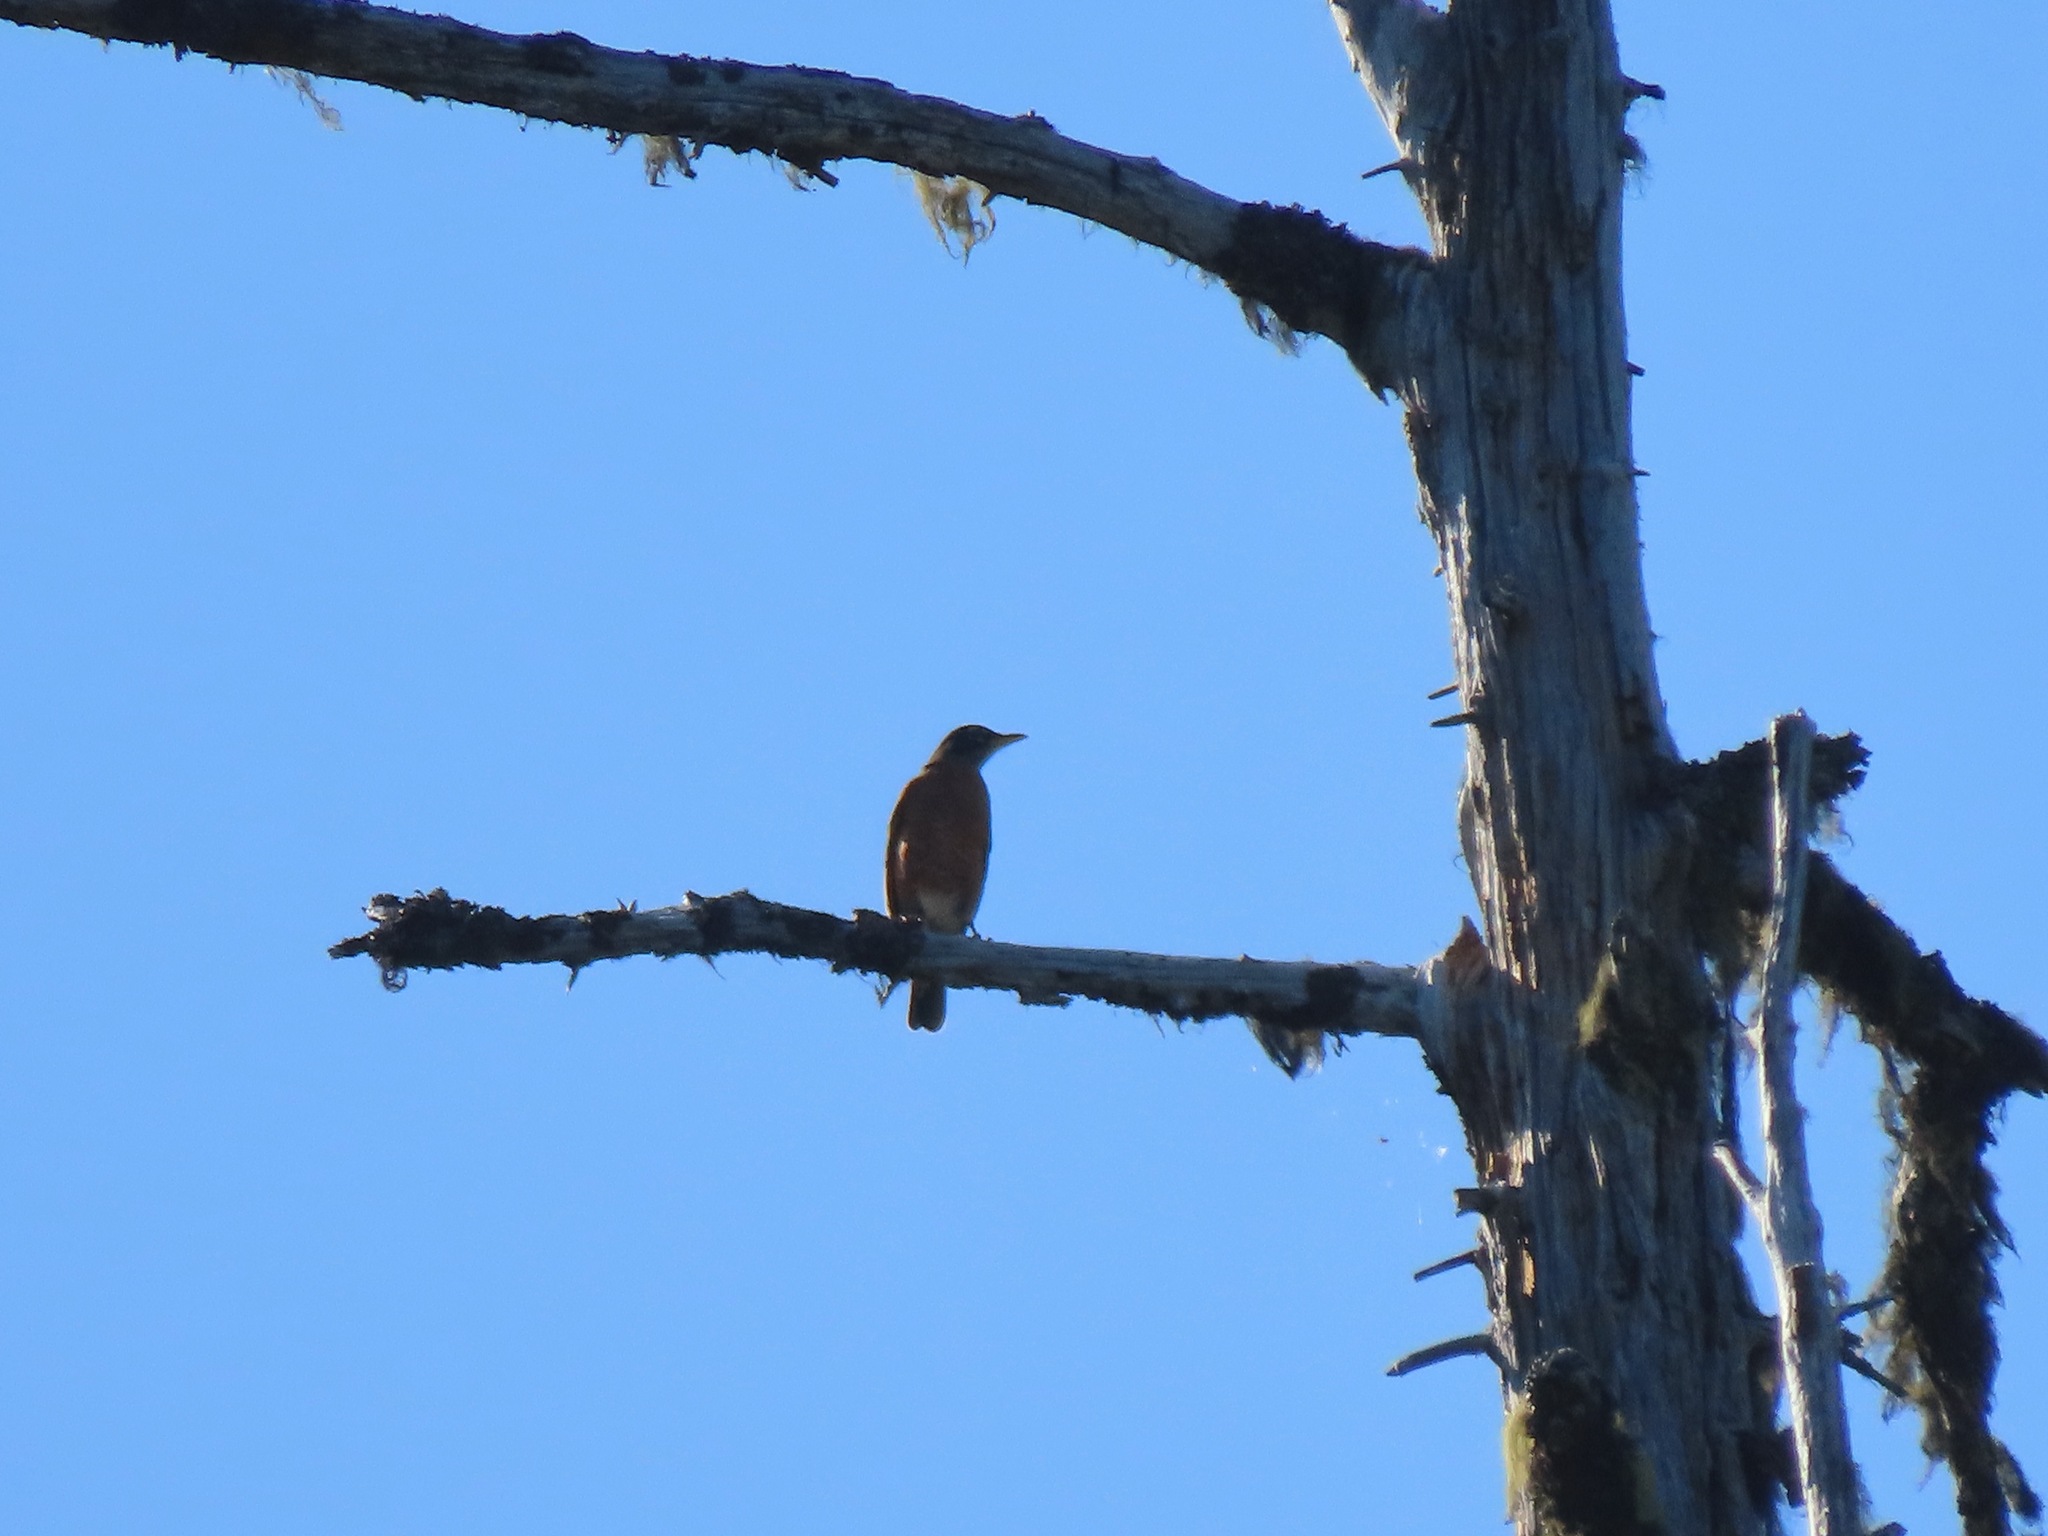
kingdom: Animalia
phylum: Chordata
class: Aves
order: Passeriformes
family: Turdidae
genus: Turdus
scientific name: Turdus migratorius
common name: American robin
